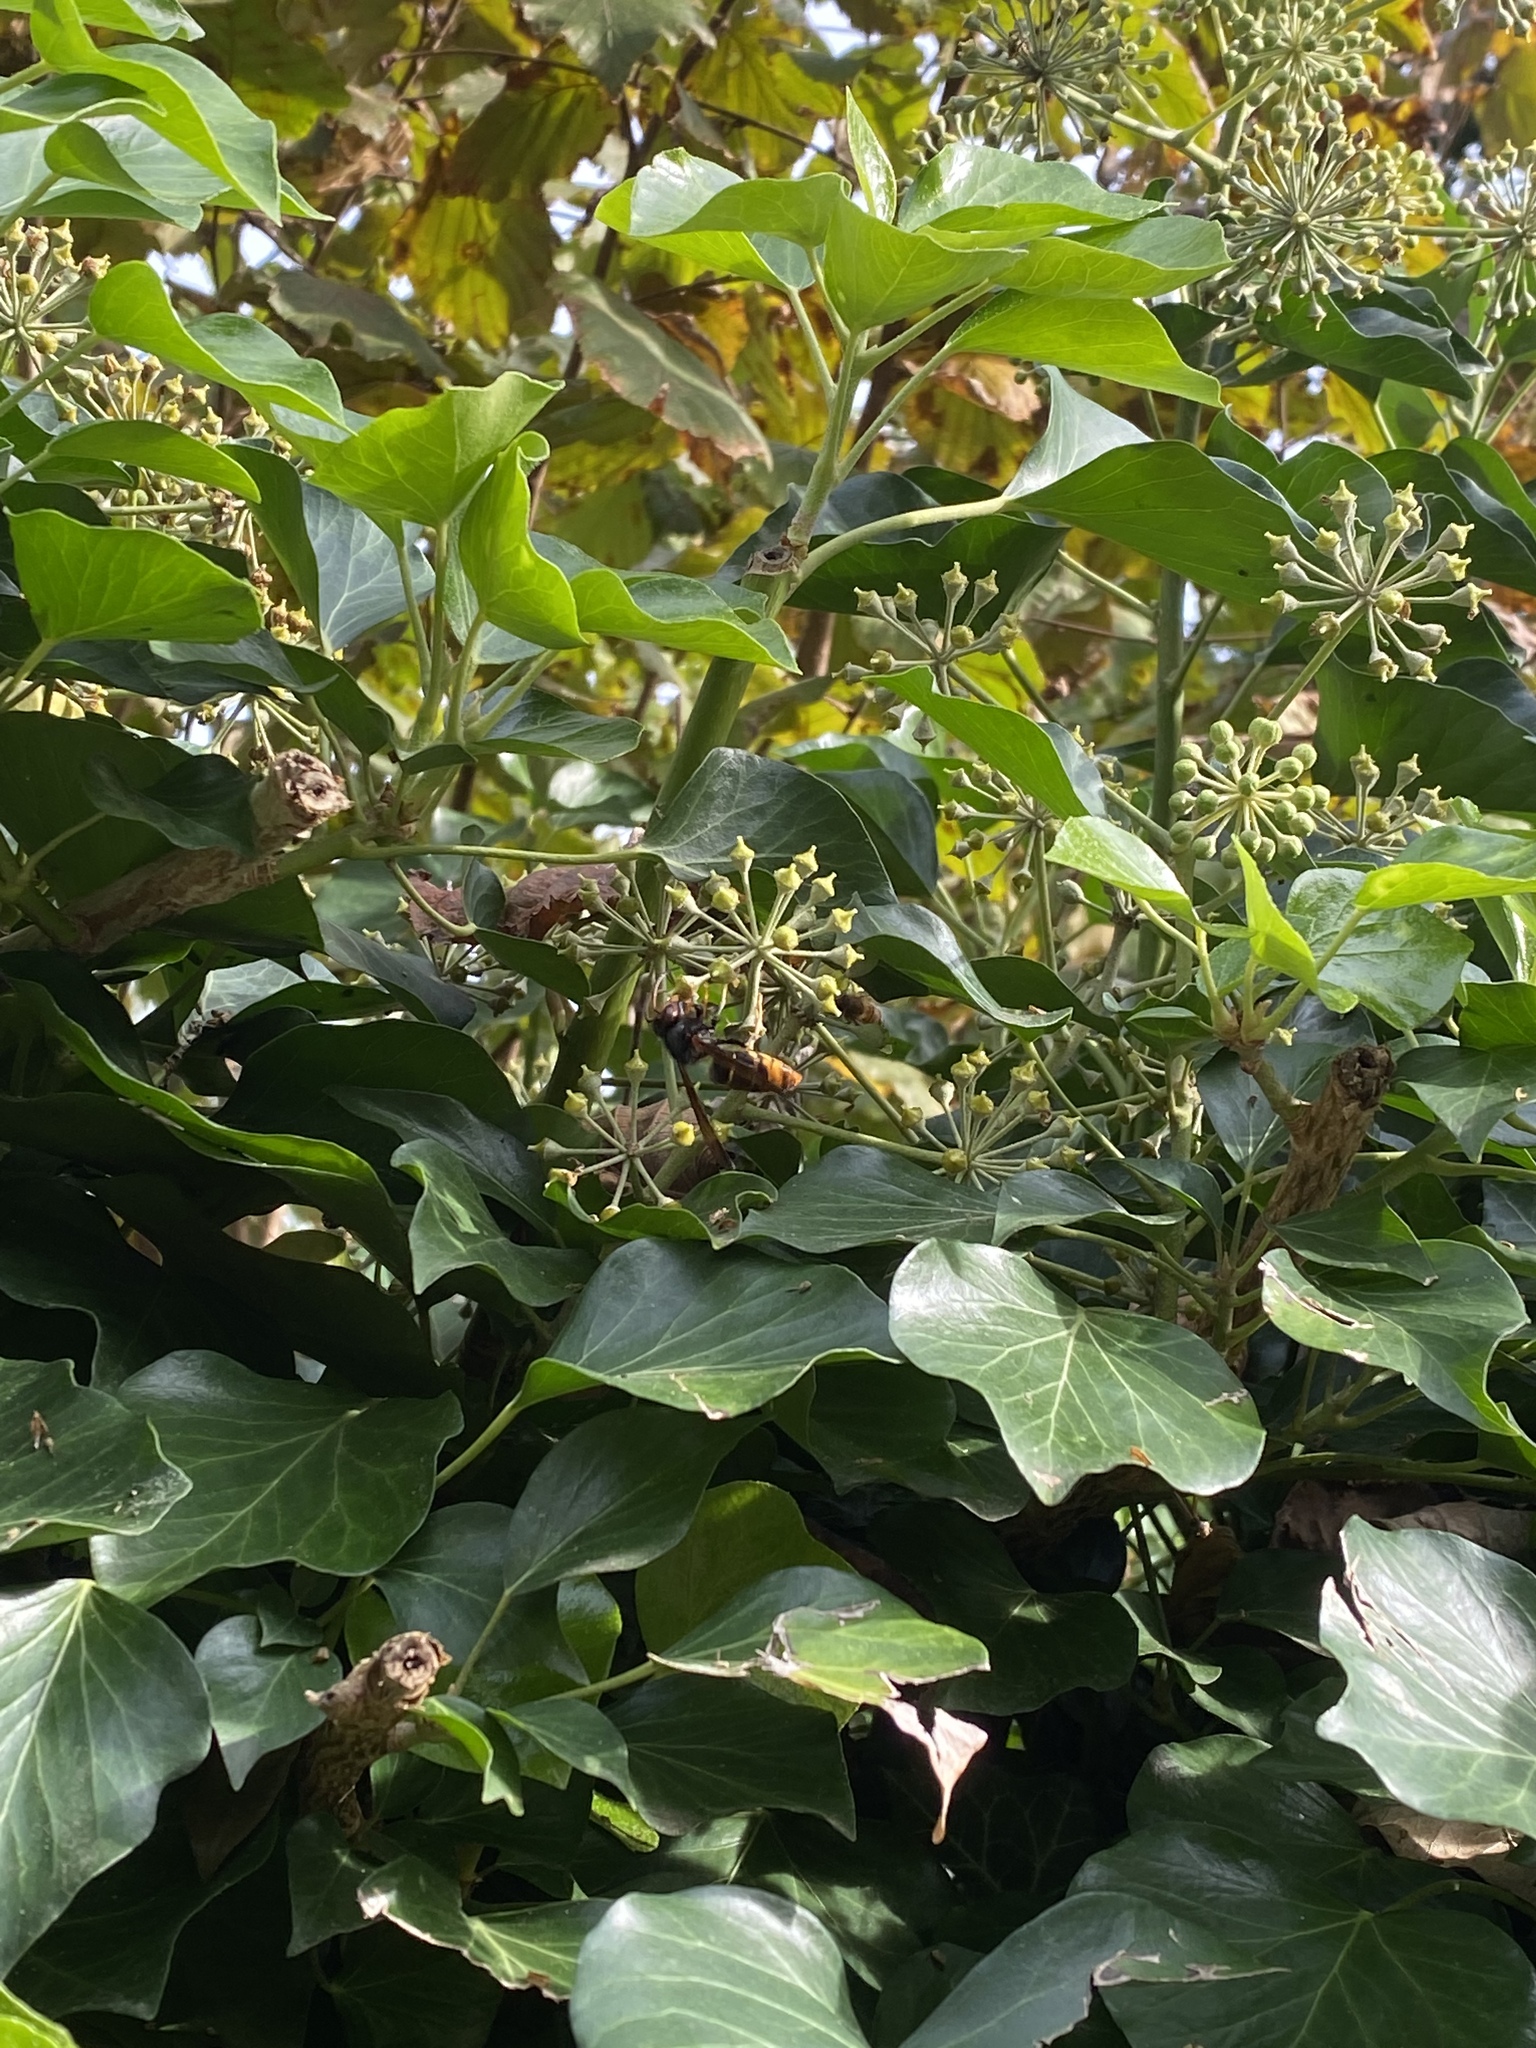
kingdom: Animalia
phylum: Arthropoda
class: Insecta
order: Hymenoptera
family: Vespidae
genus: Vespa
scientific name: Vespa velutina
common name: Asian hornet
